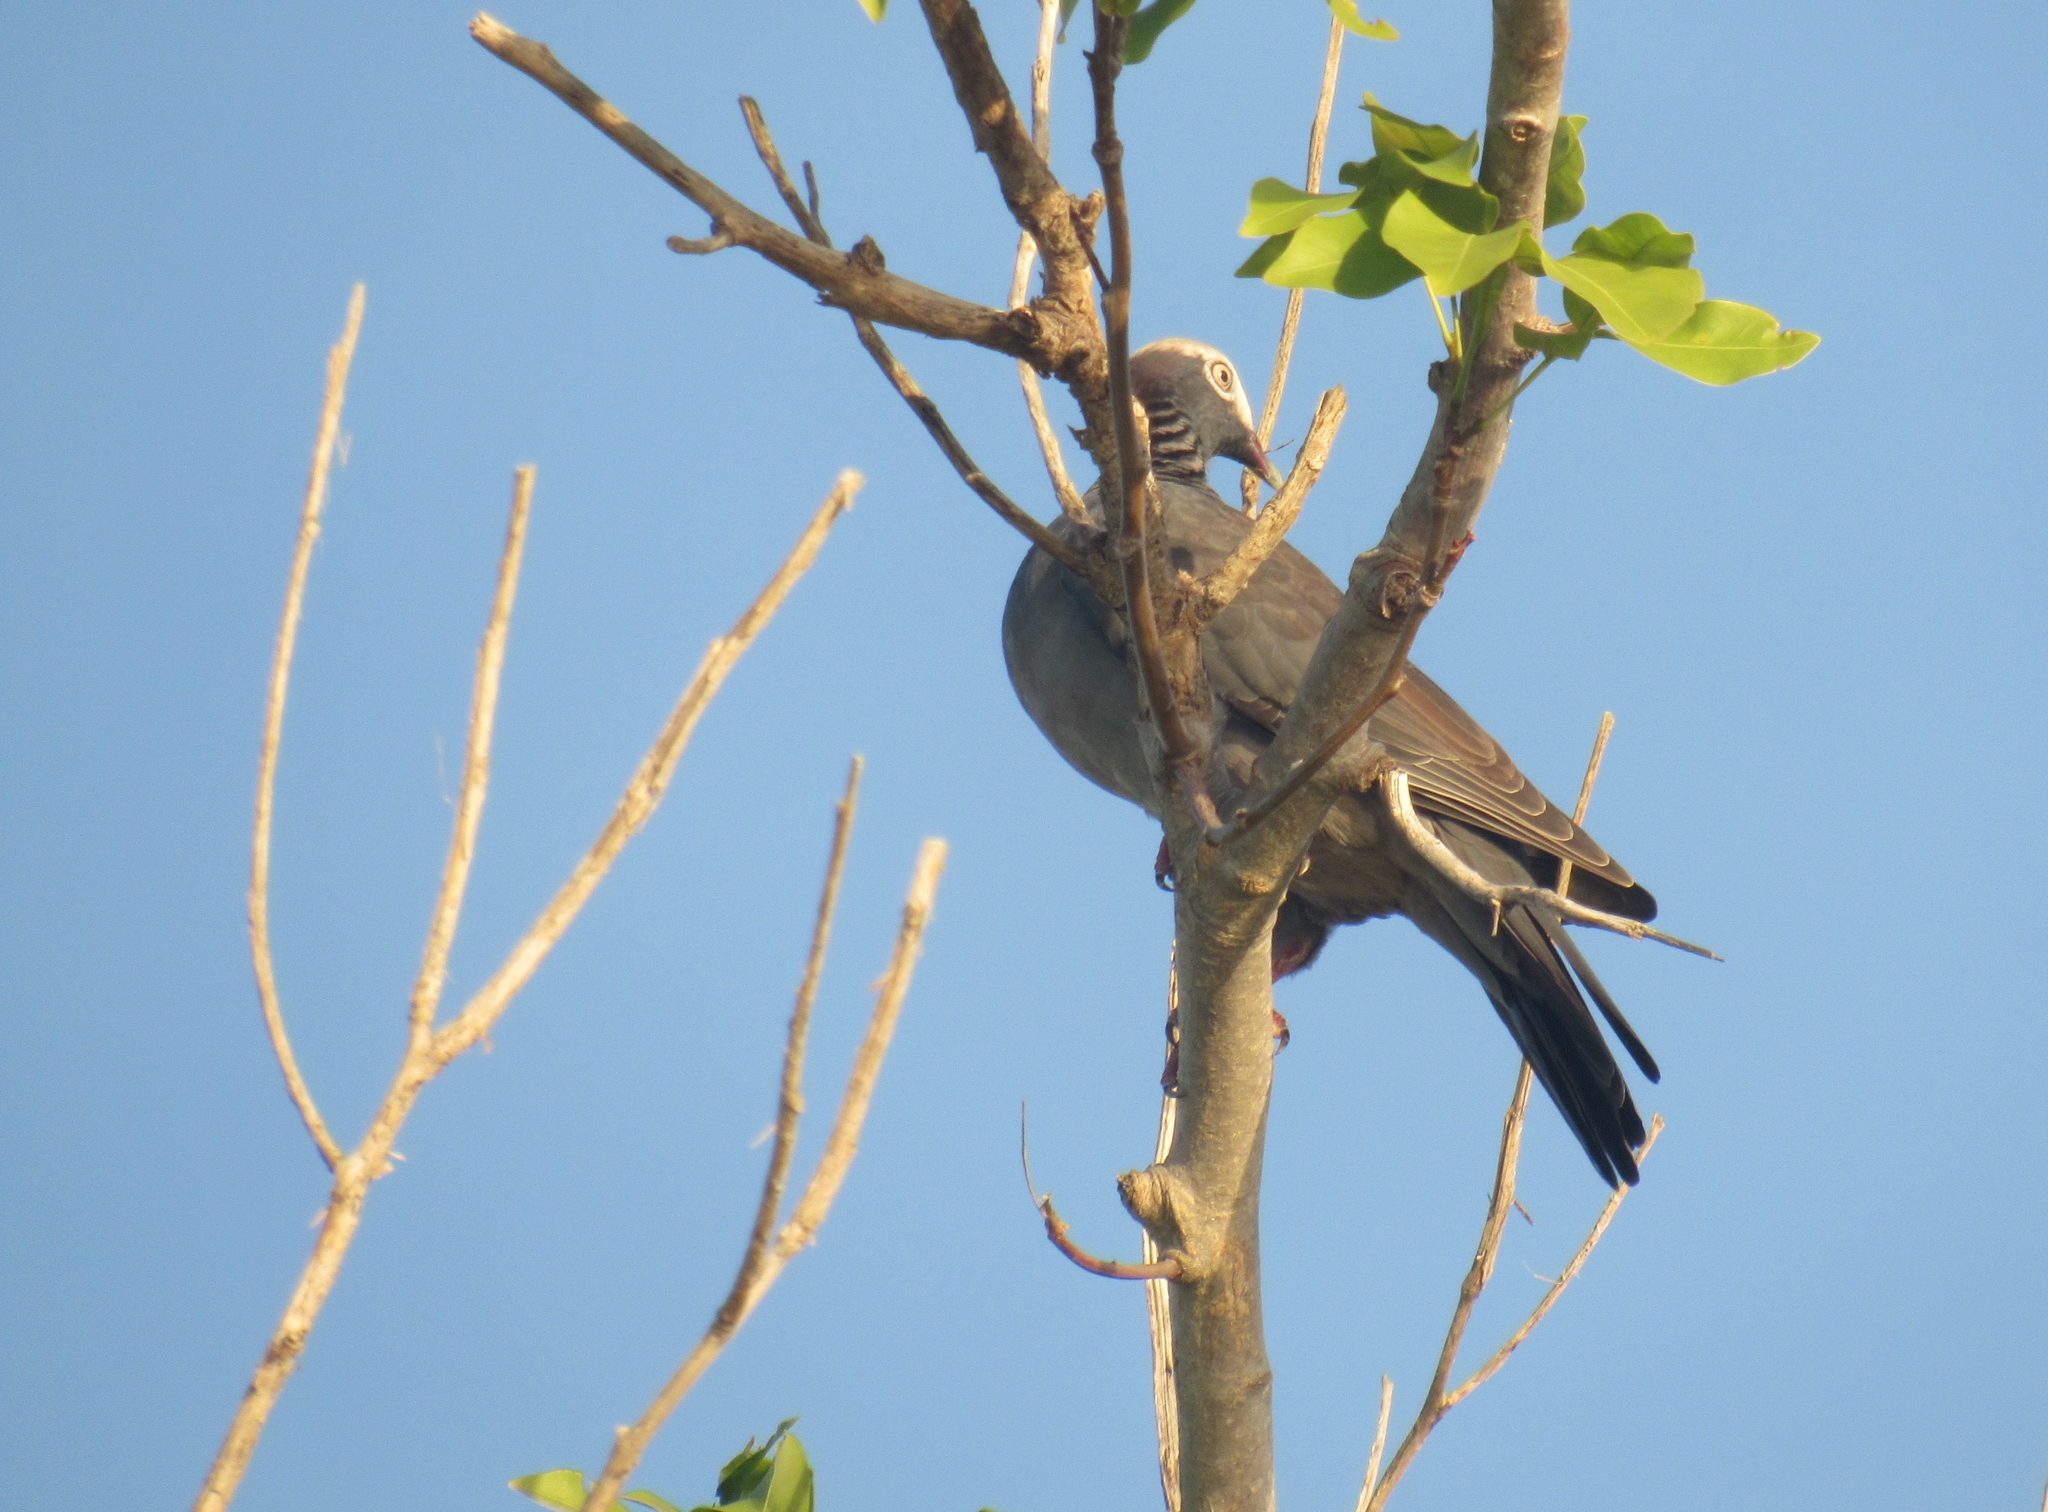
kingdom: Animalia
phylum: Chordata
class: Aves
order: Columbiformes
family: Columbidae
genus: Patagioenas
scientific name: Patagioenas leucocephala
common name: White-crowned pigeon
